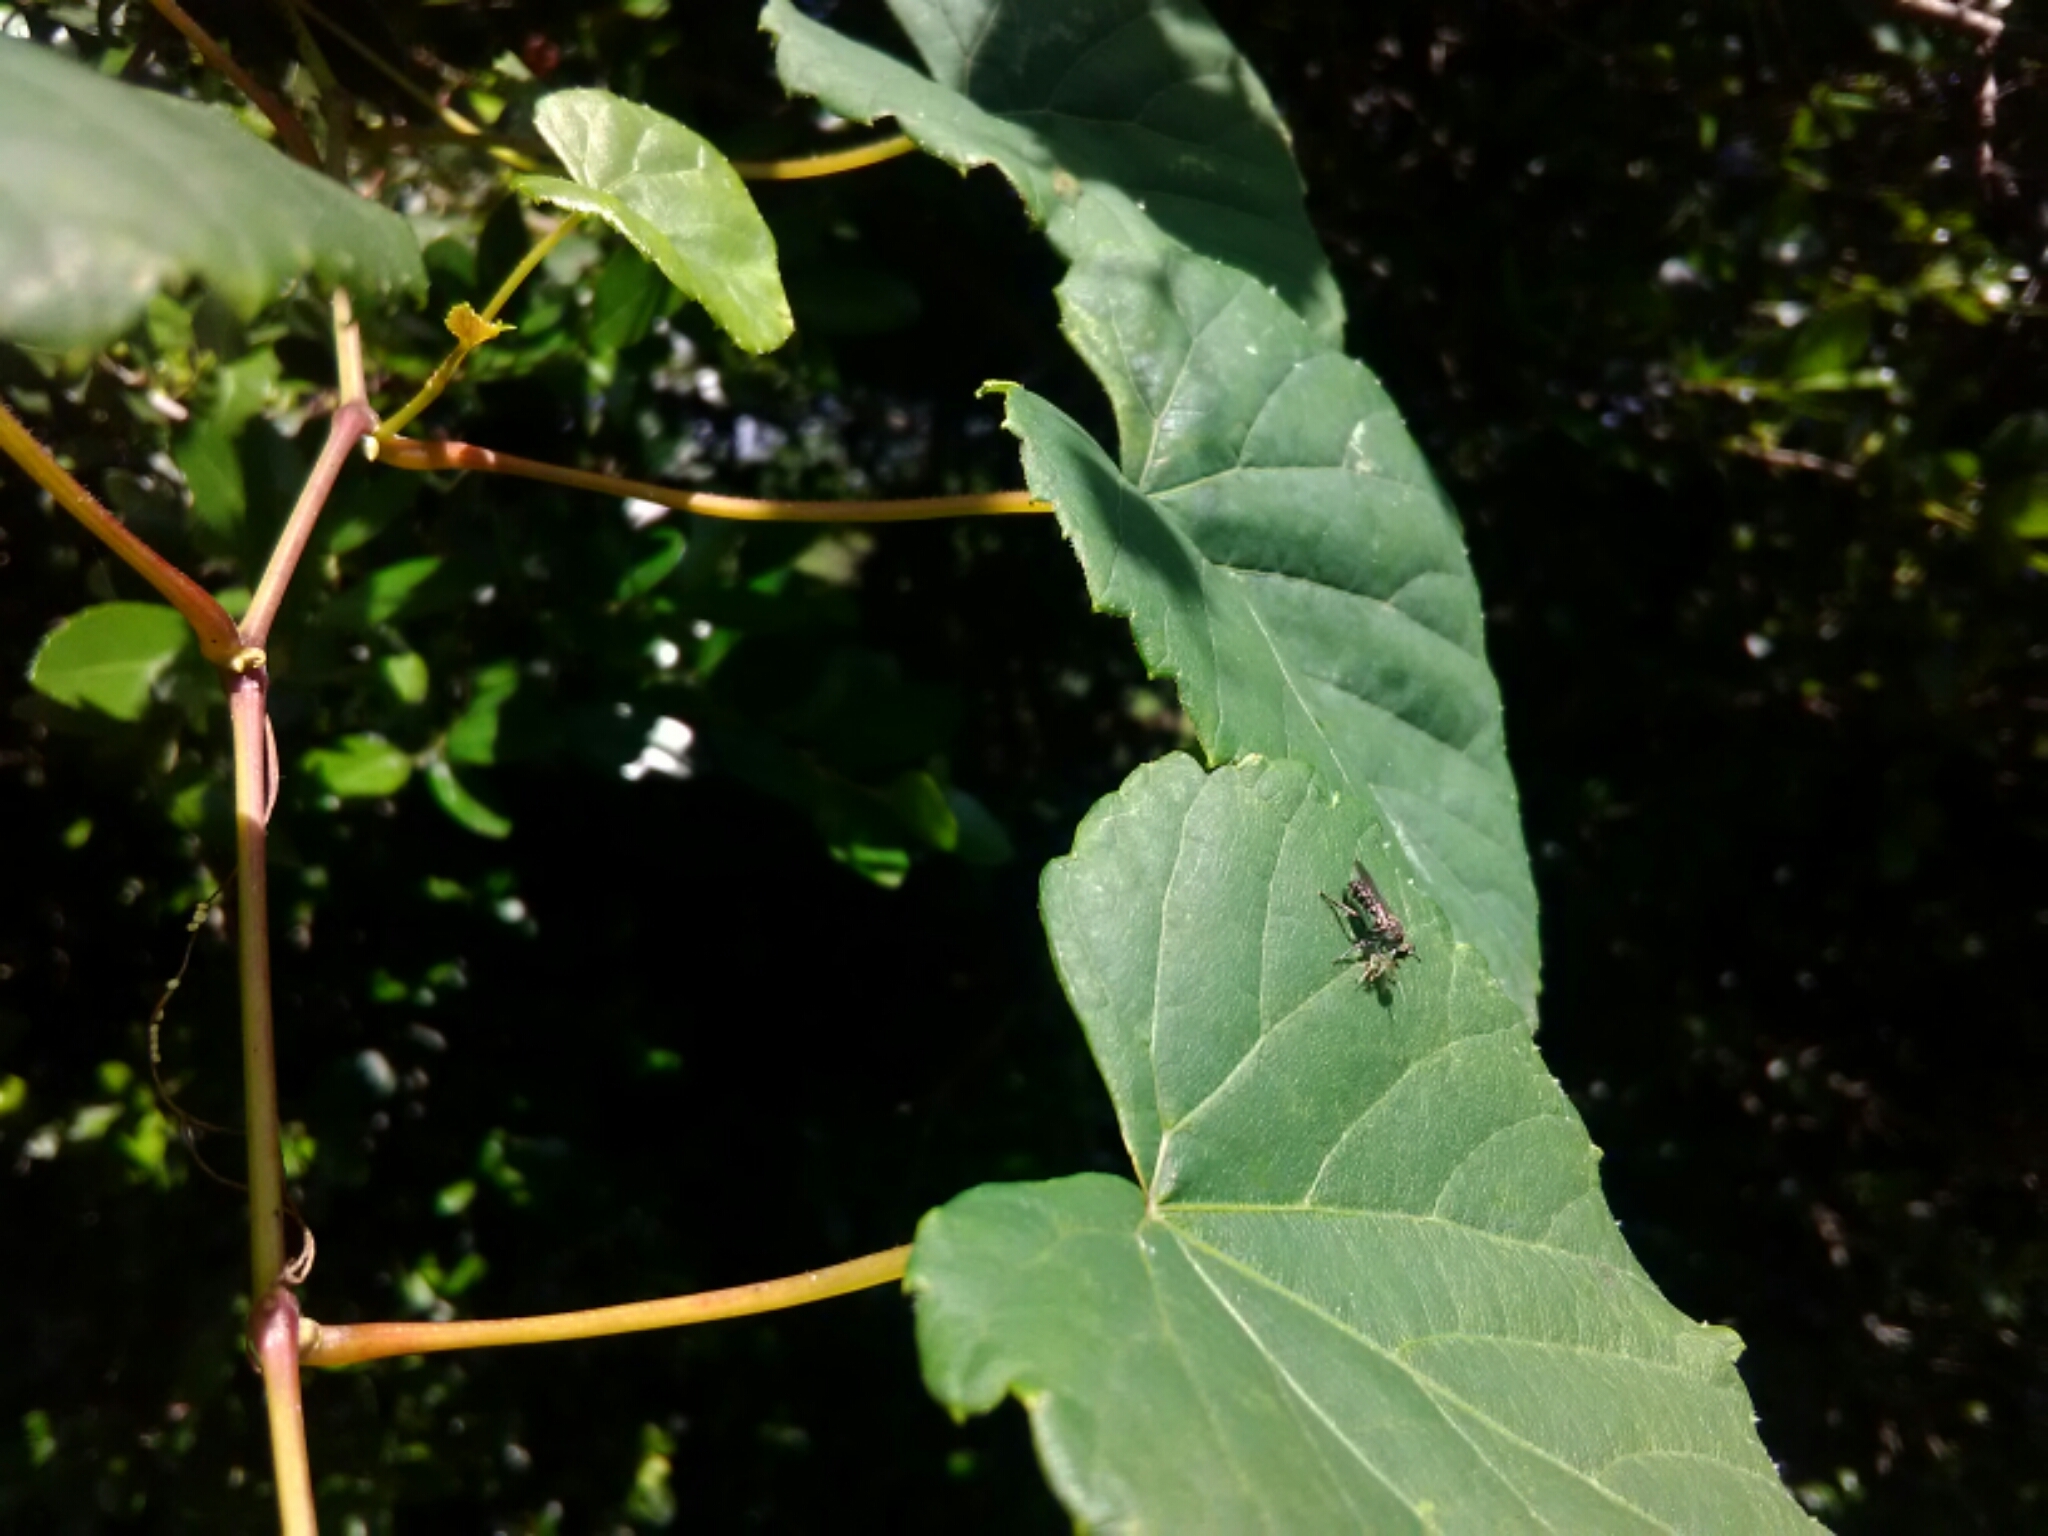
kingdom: Animalia
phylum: Arthropoda
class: Insecta
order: Diptera
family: Asilidae
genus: Atomosia
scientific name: Atomosia
